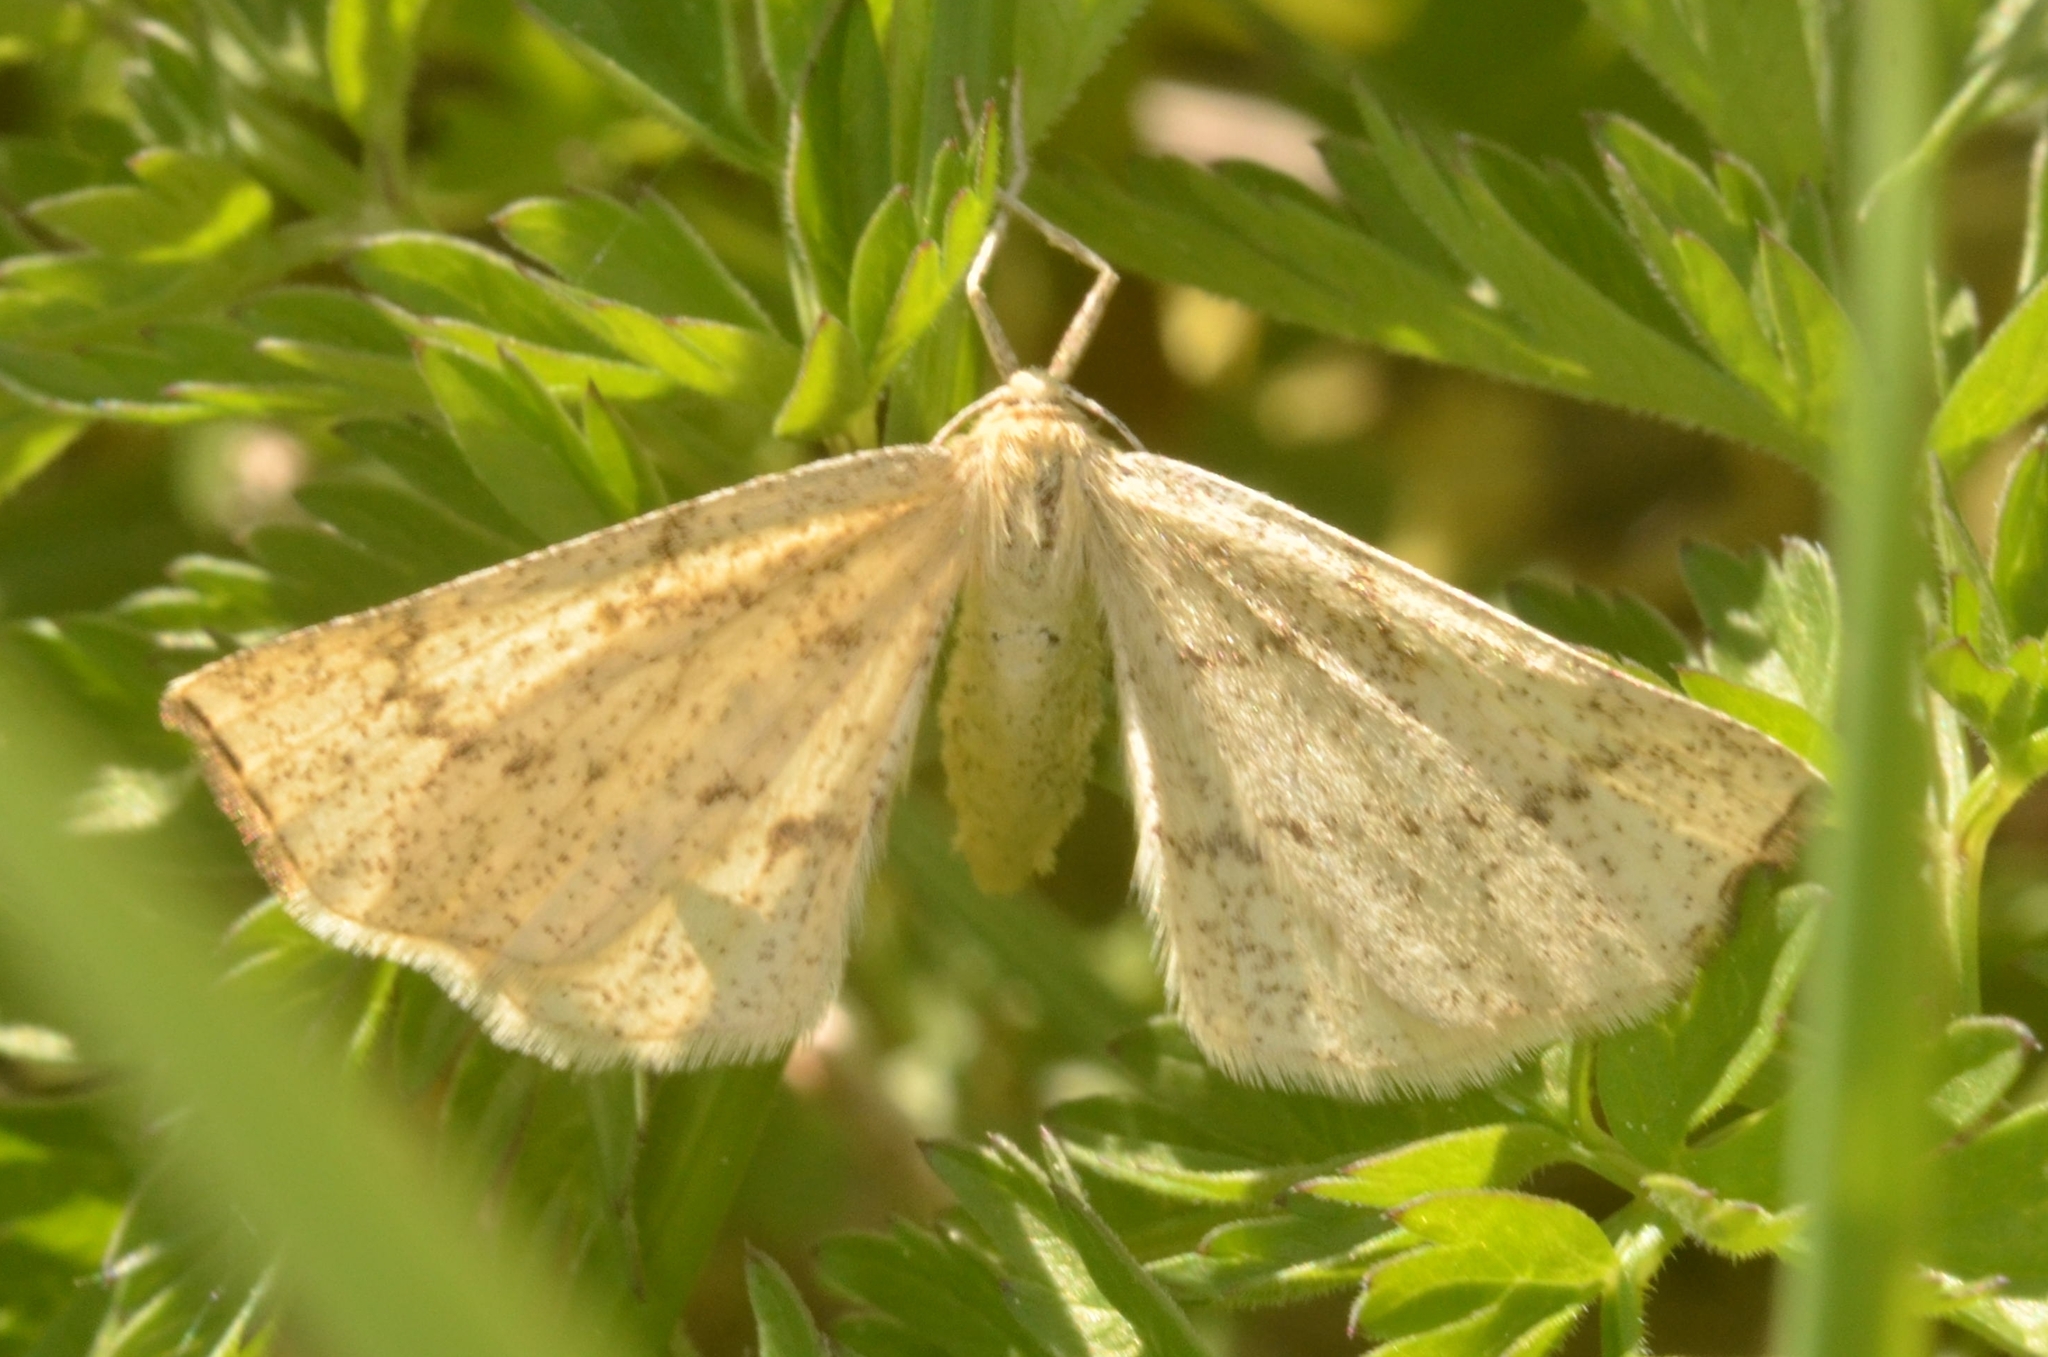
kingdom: Animalia
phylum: Arthropoda
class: Insecta
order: Lepidoptera
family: Geometridae
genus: Hypoxystis
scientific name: Hypoxystis pluviaria
